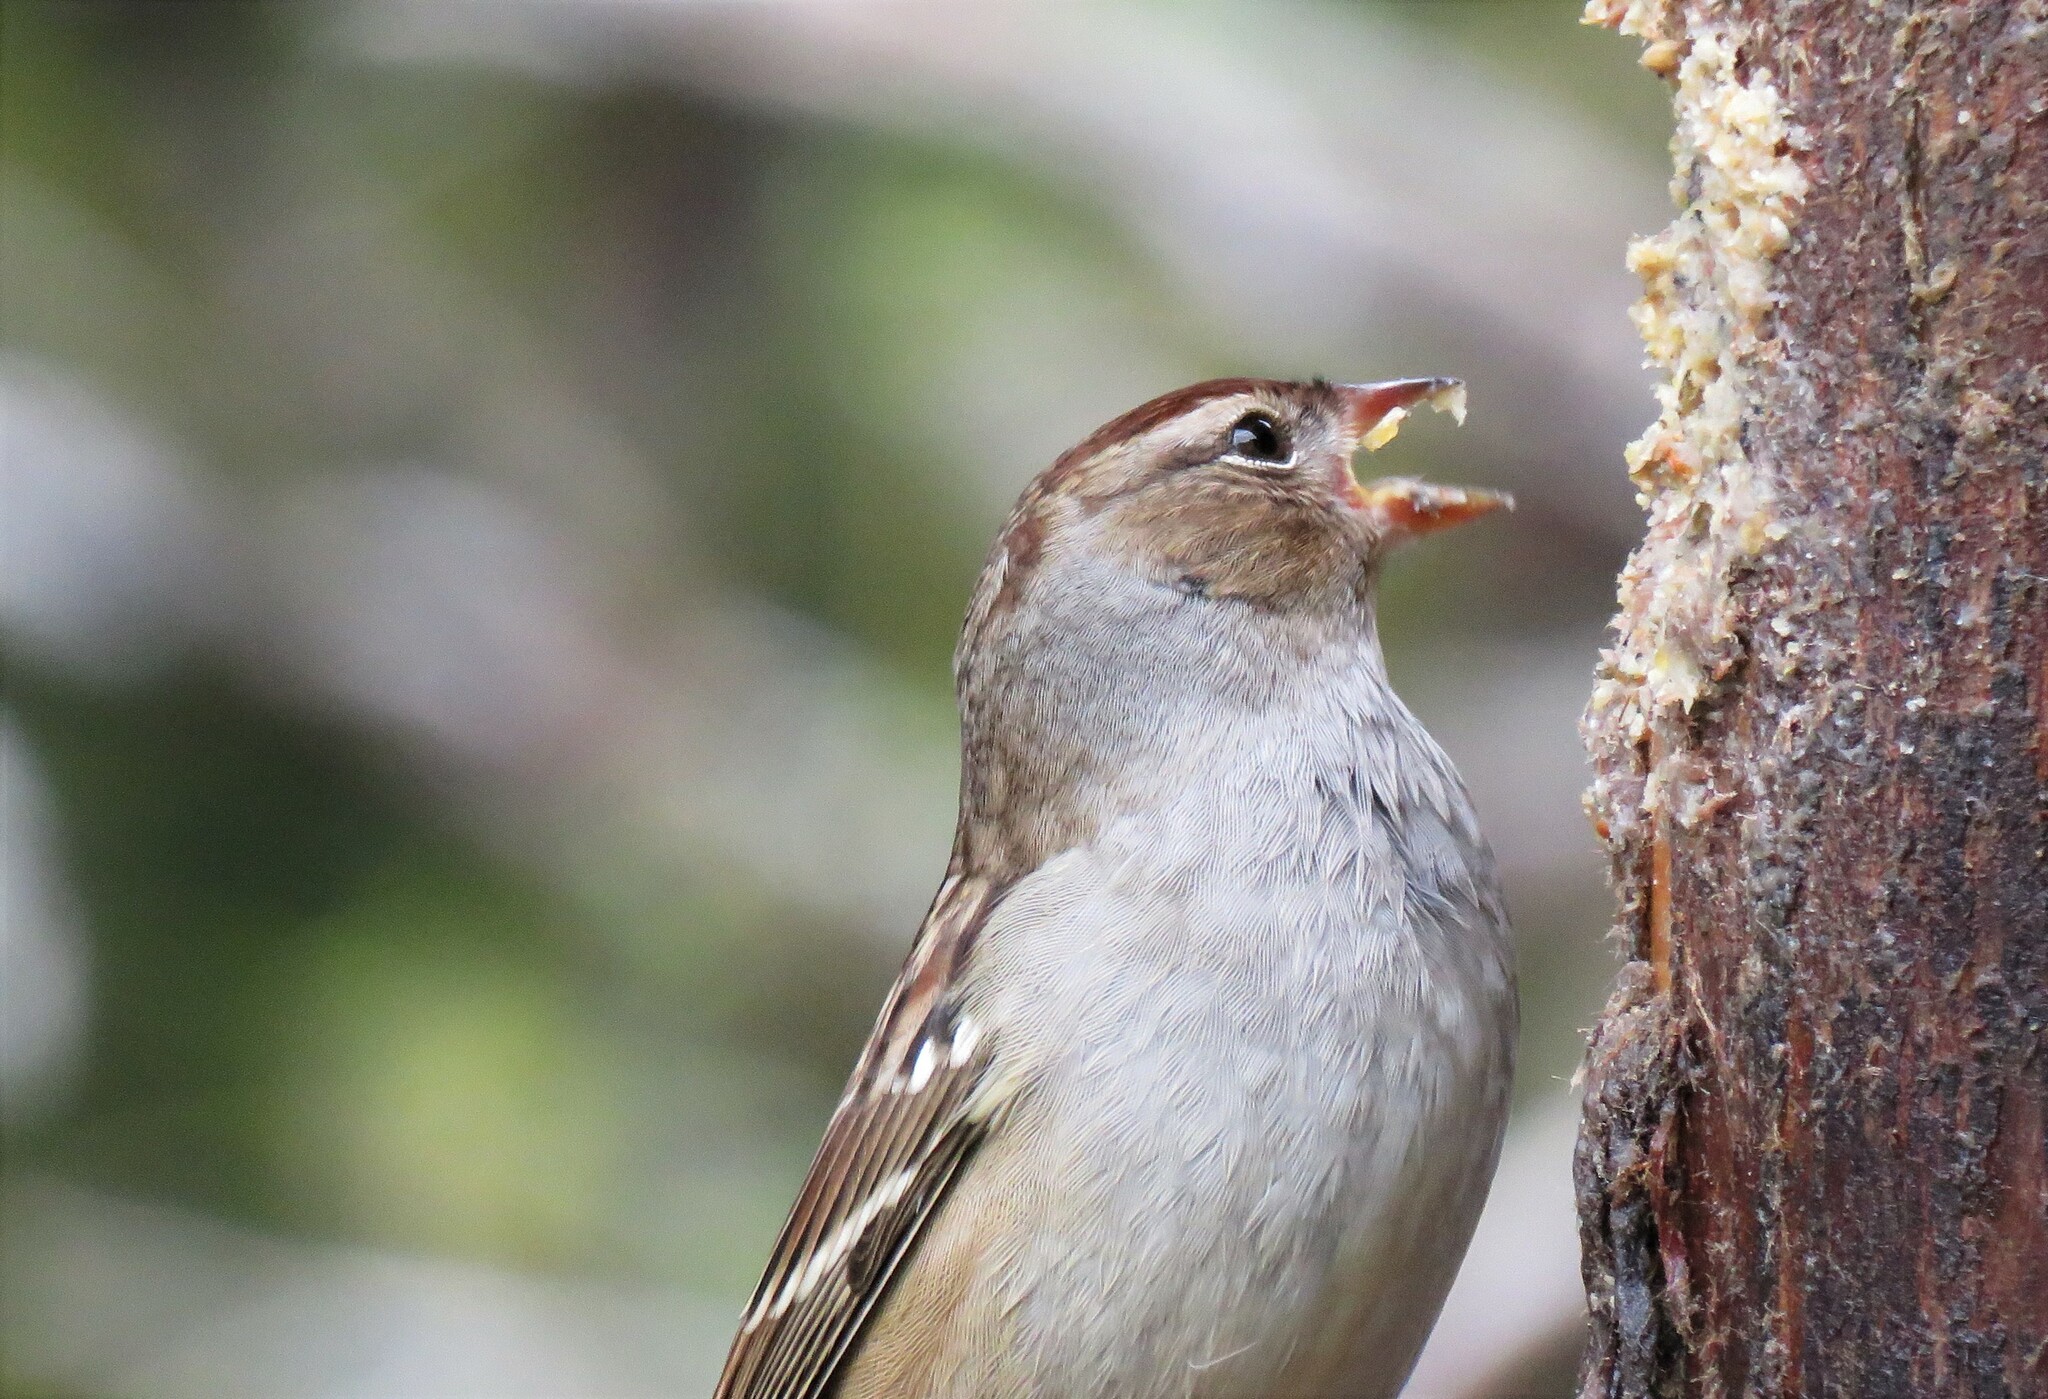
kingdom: Animalia
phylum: Chordata
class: Aves
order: Passeriformes
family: Passerellidae
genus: Zonotrichia
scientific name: Zonotrichia leucophrys
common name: White-crowned sparrow
